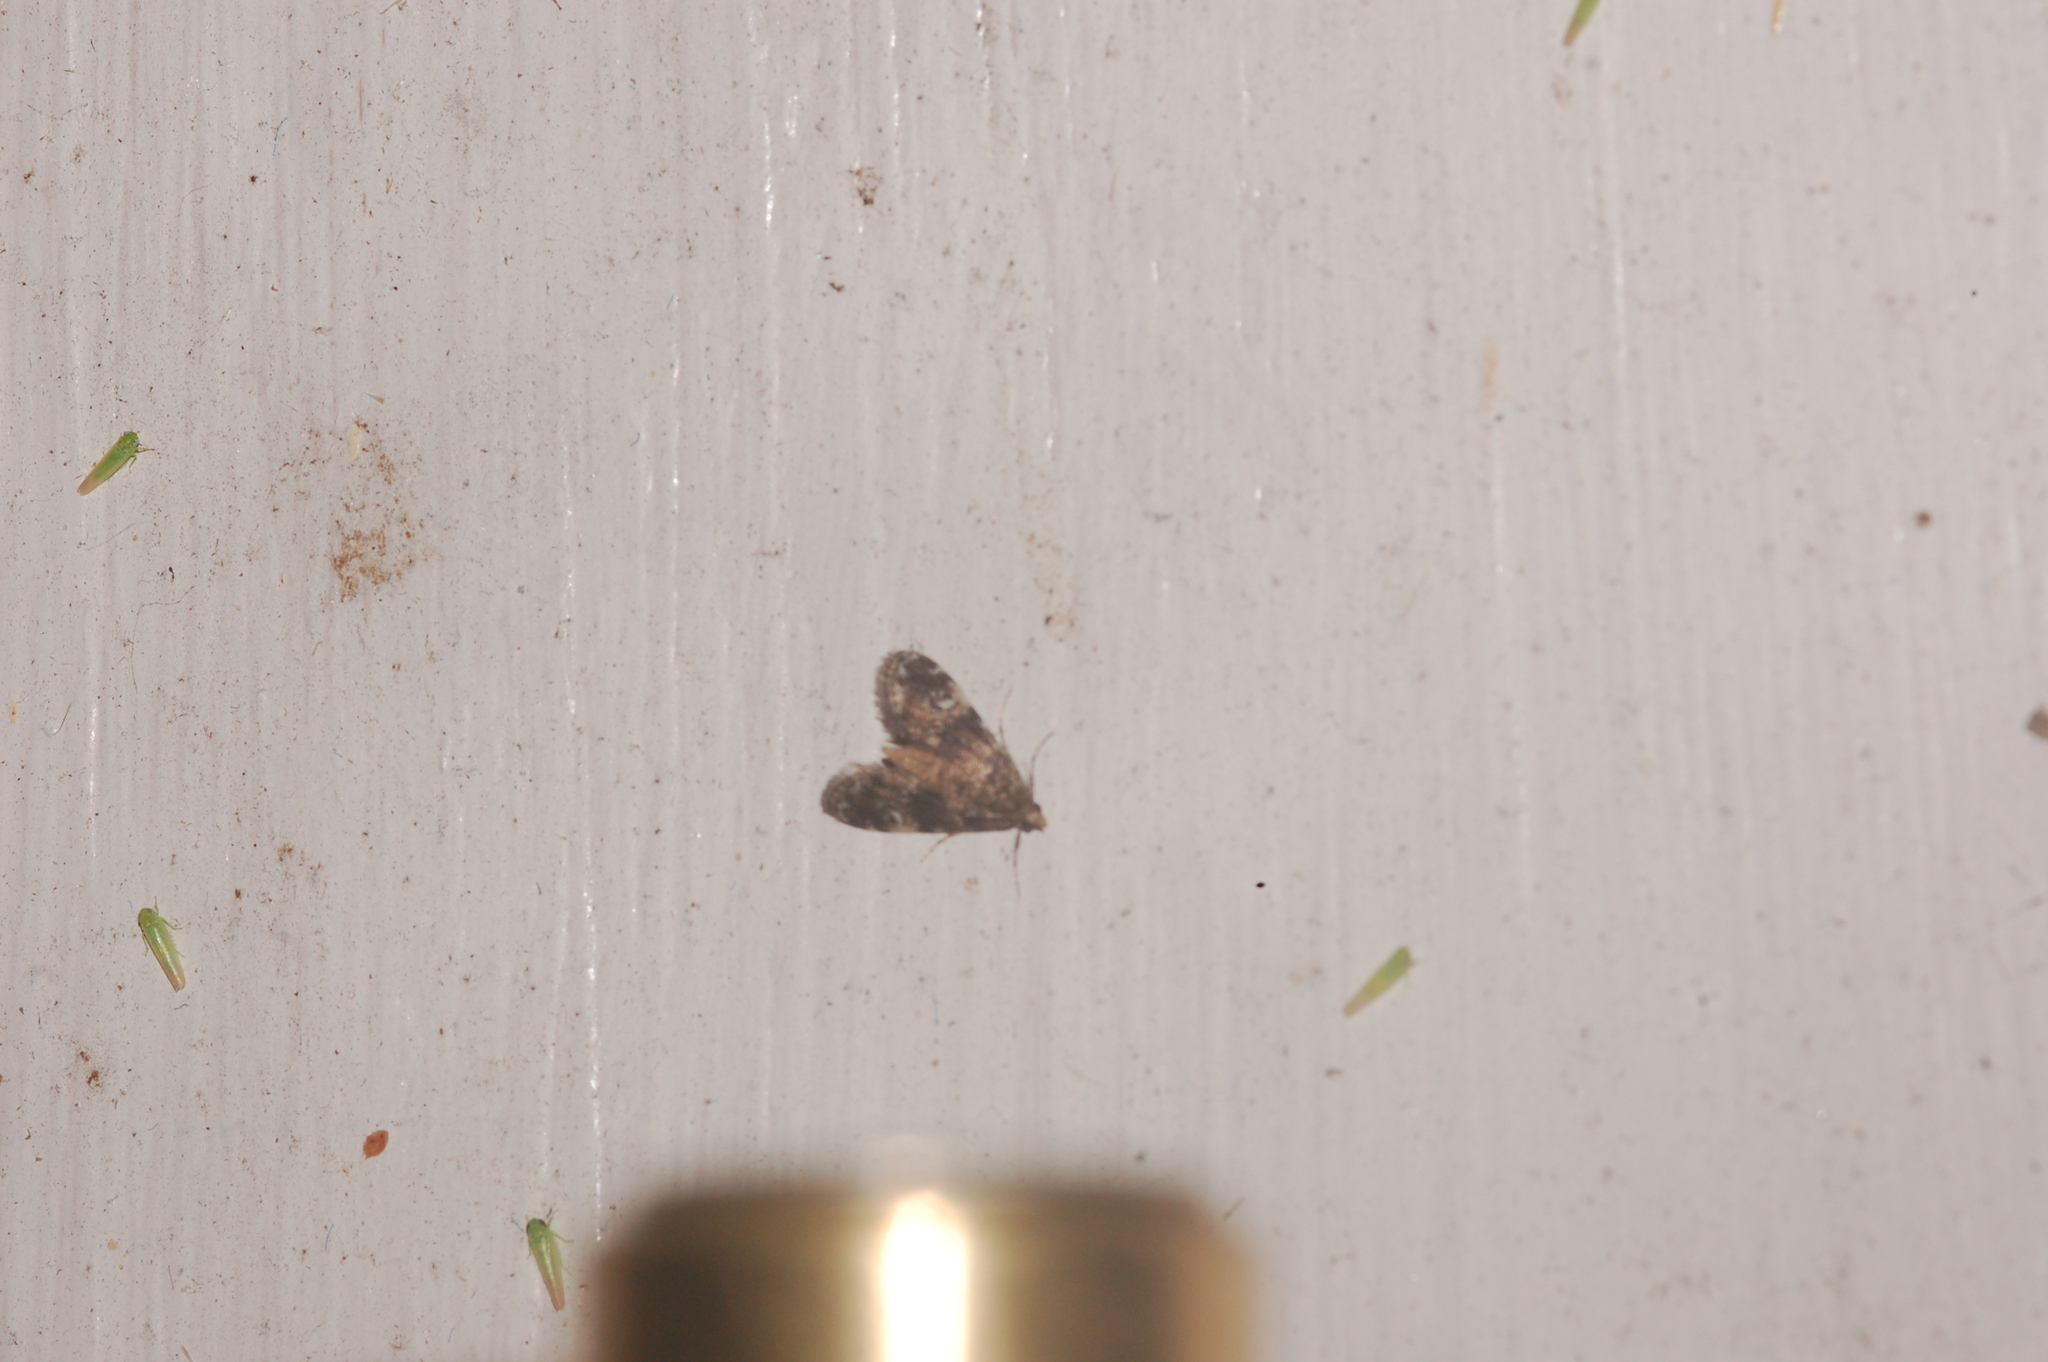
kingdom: Animalia
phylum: Arthropoda
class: Insecta
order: Lepidoptera
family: Crambidae
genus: Elophila
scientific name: Elophila obliteralis
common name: Waterlily leafcutter moth
